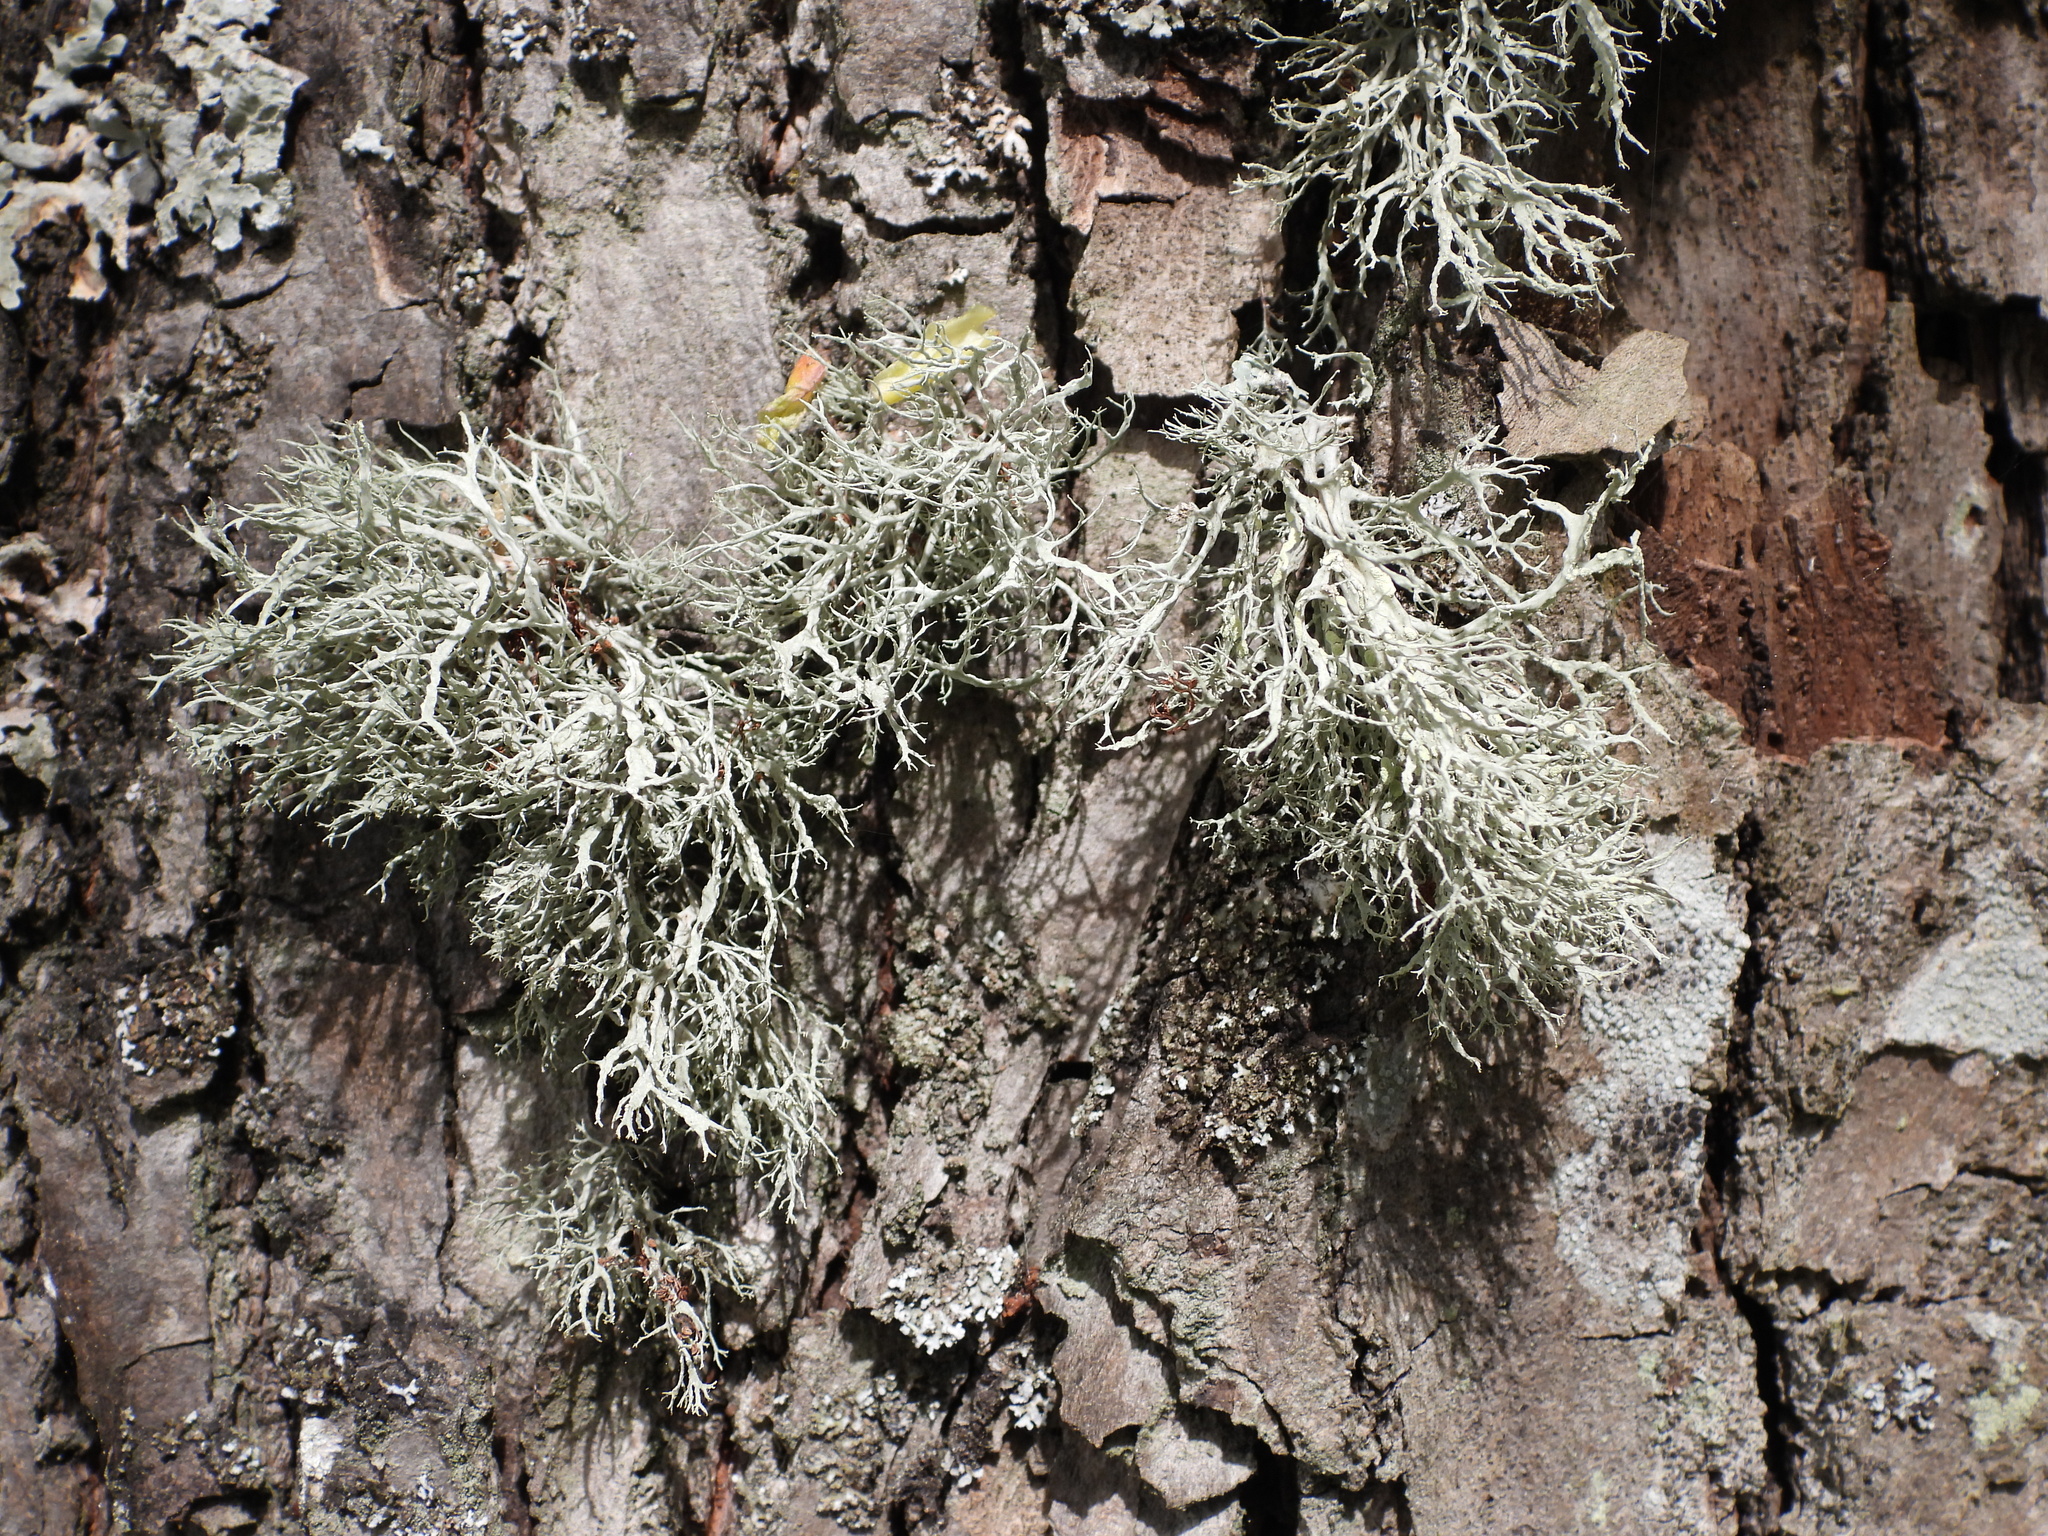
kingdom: Fungi
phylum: Ascomycota
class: Lecanoromycetes
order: Lecanorales
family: Ramalinaceae
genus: Ramalina
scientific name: Ramalina farinacea
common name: Farinose cartilage lichen
